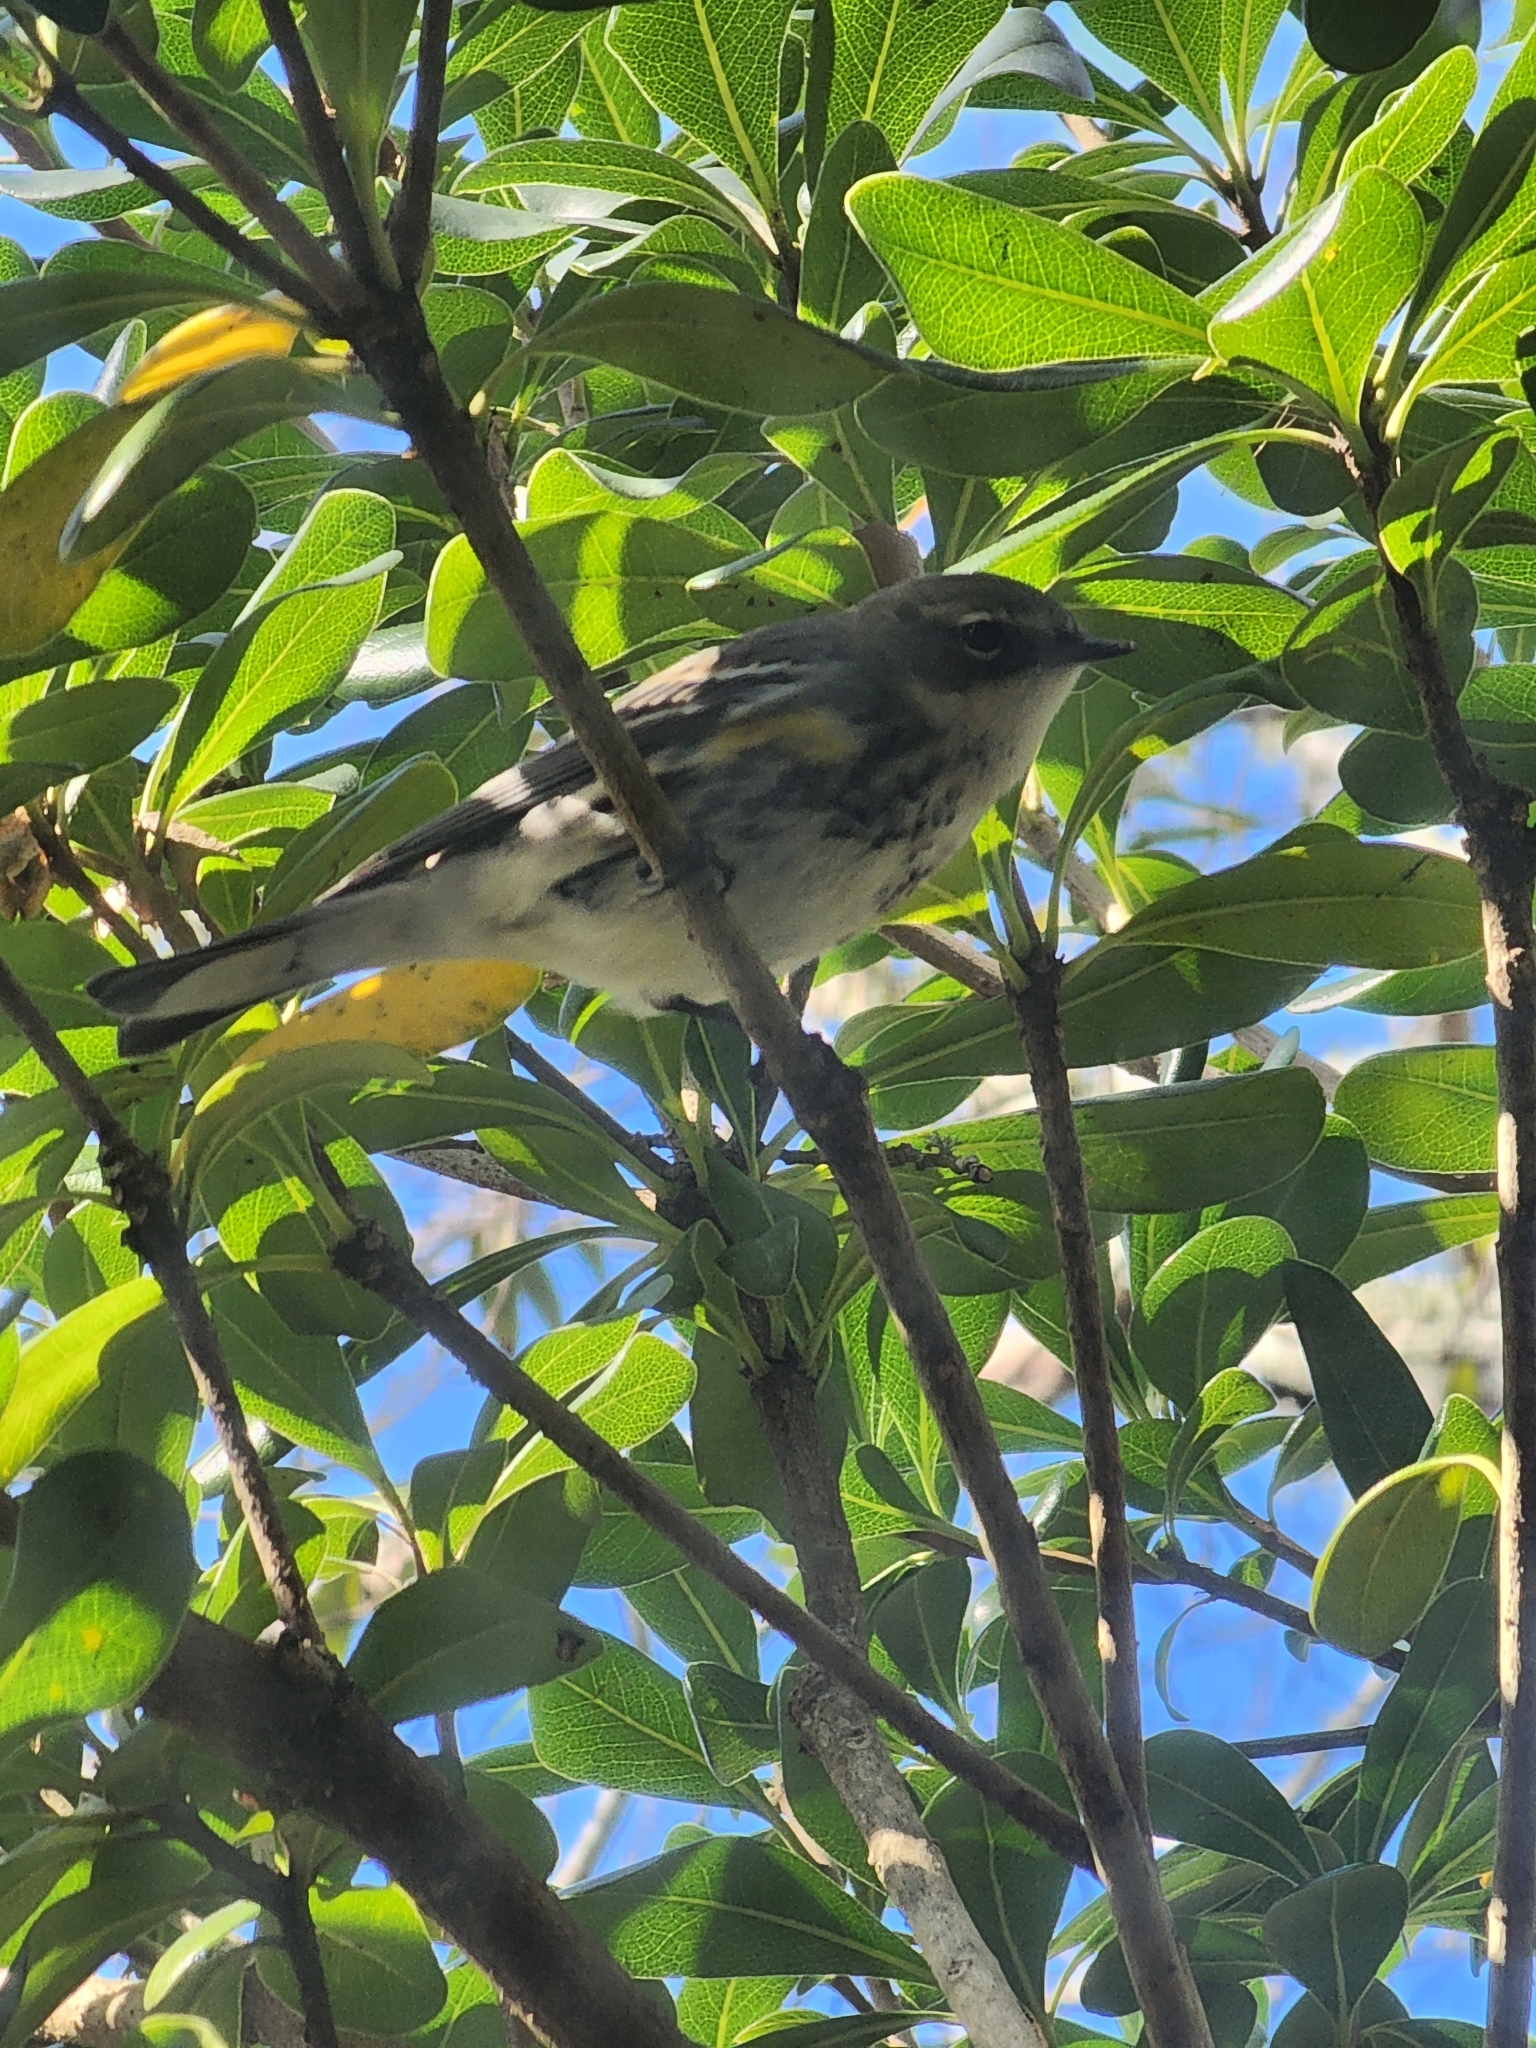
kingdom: Animalia
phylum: Chordata
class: Aves
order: Passeriformes
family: Parulidae
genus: Setophaga
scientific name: Setophaga coronata
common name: Myrtle warbler
